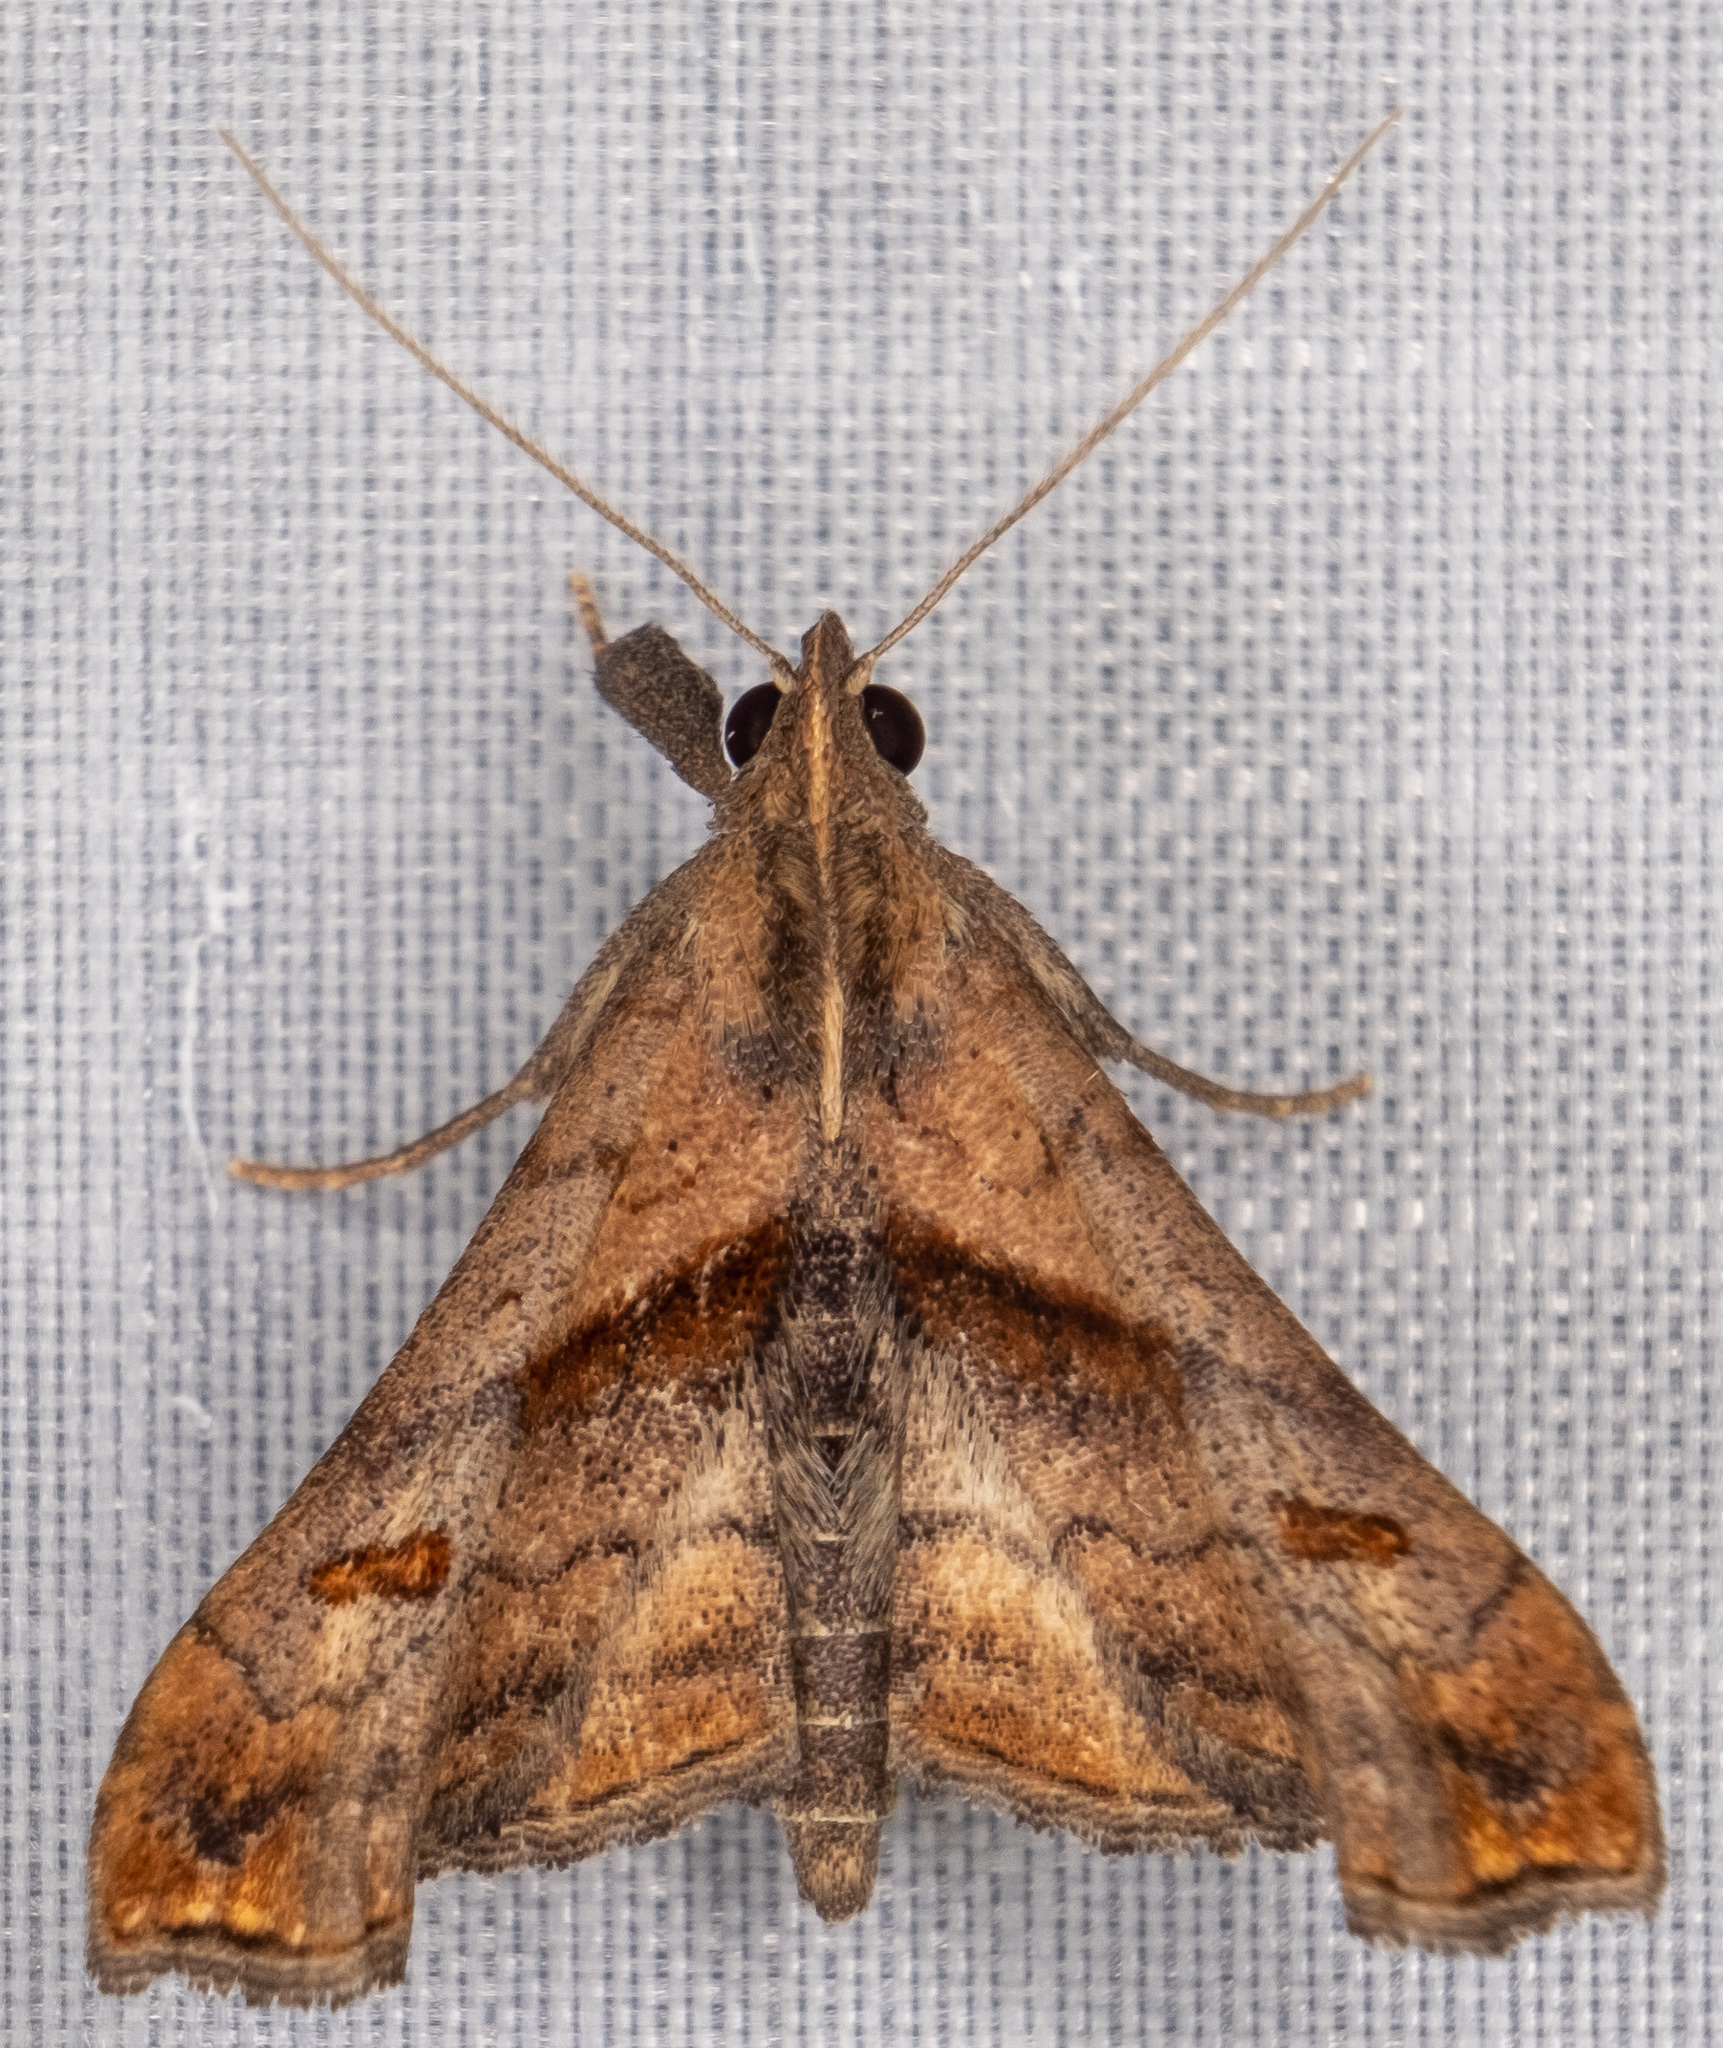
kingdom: Animalia
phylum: Arthropoda
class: Insecta
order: Lepidoptera
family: Erebidae
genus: Palthis
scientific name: Palthis angulalis
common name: Dark-spotted palthis moth
